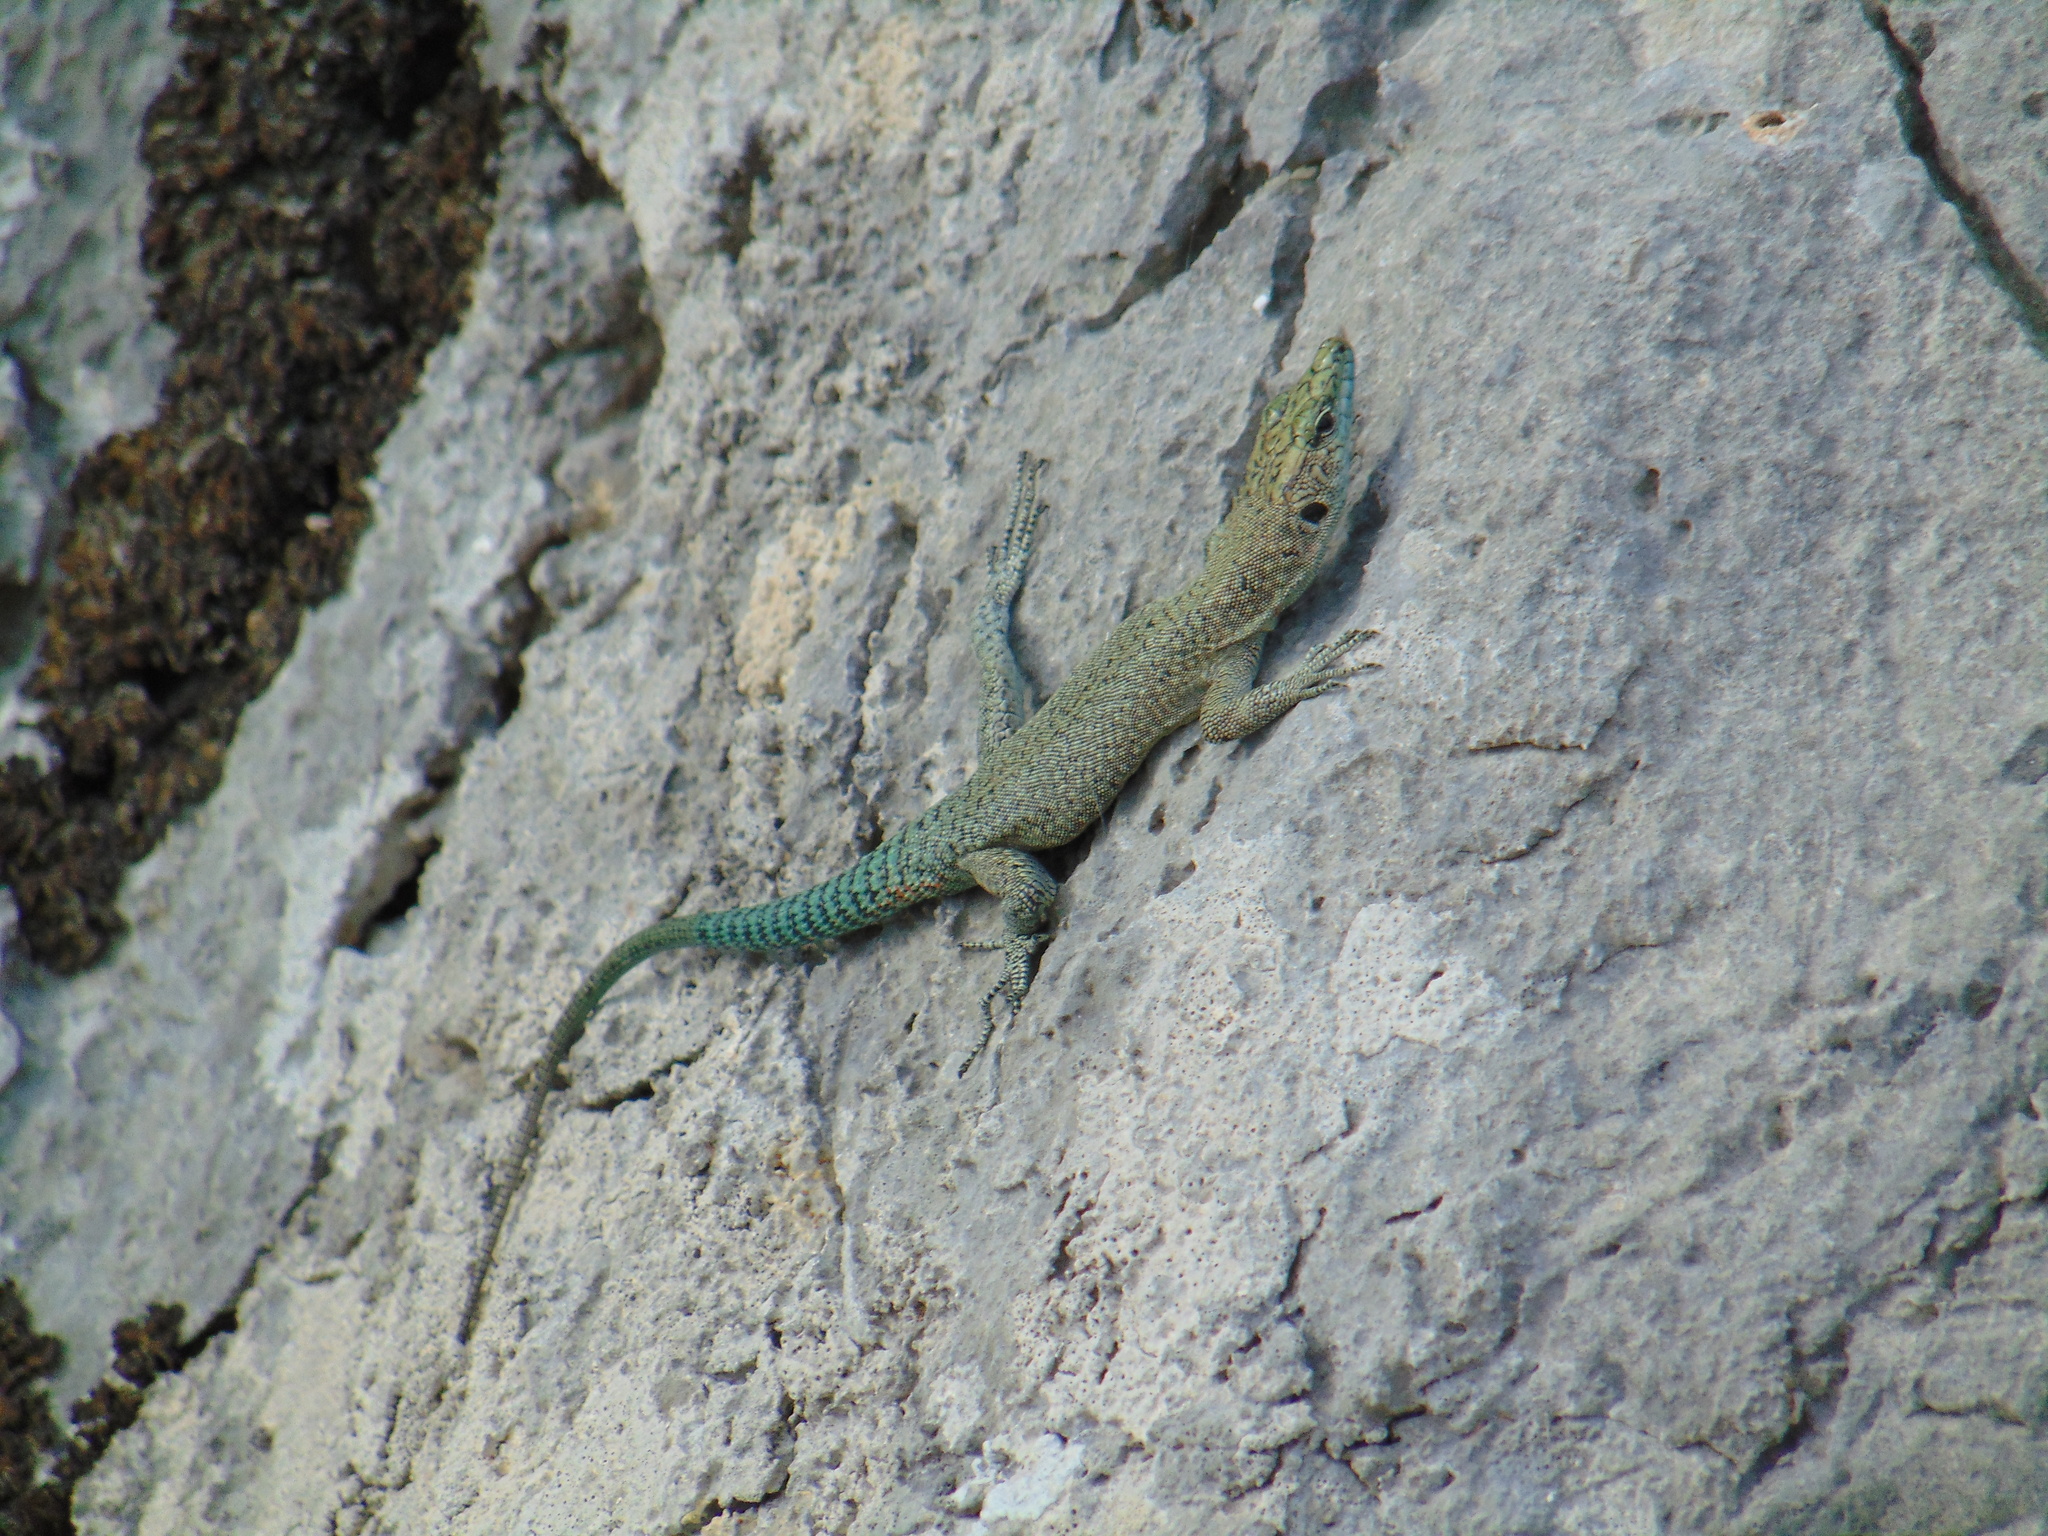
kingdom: Animalia
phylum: Chordata
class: Squamata
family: Lacertidae
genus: Dalmatolacerta
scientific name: Dalmatolacerta oxycephala
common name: Sharp-snouted rock lizard
